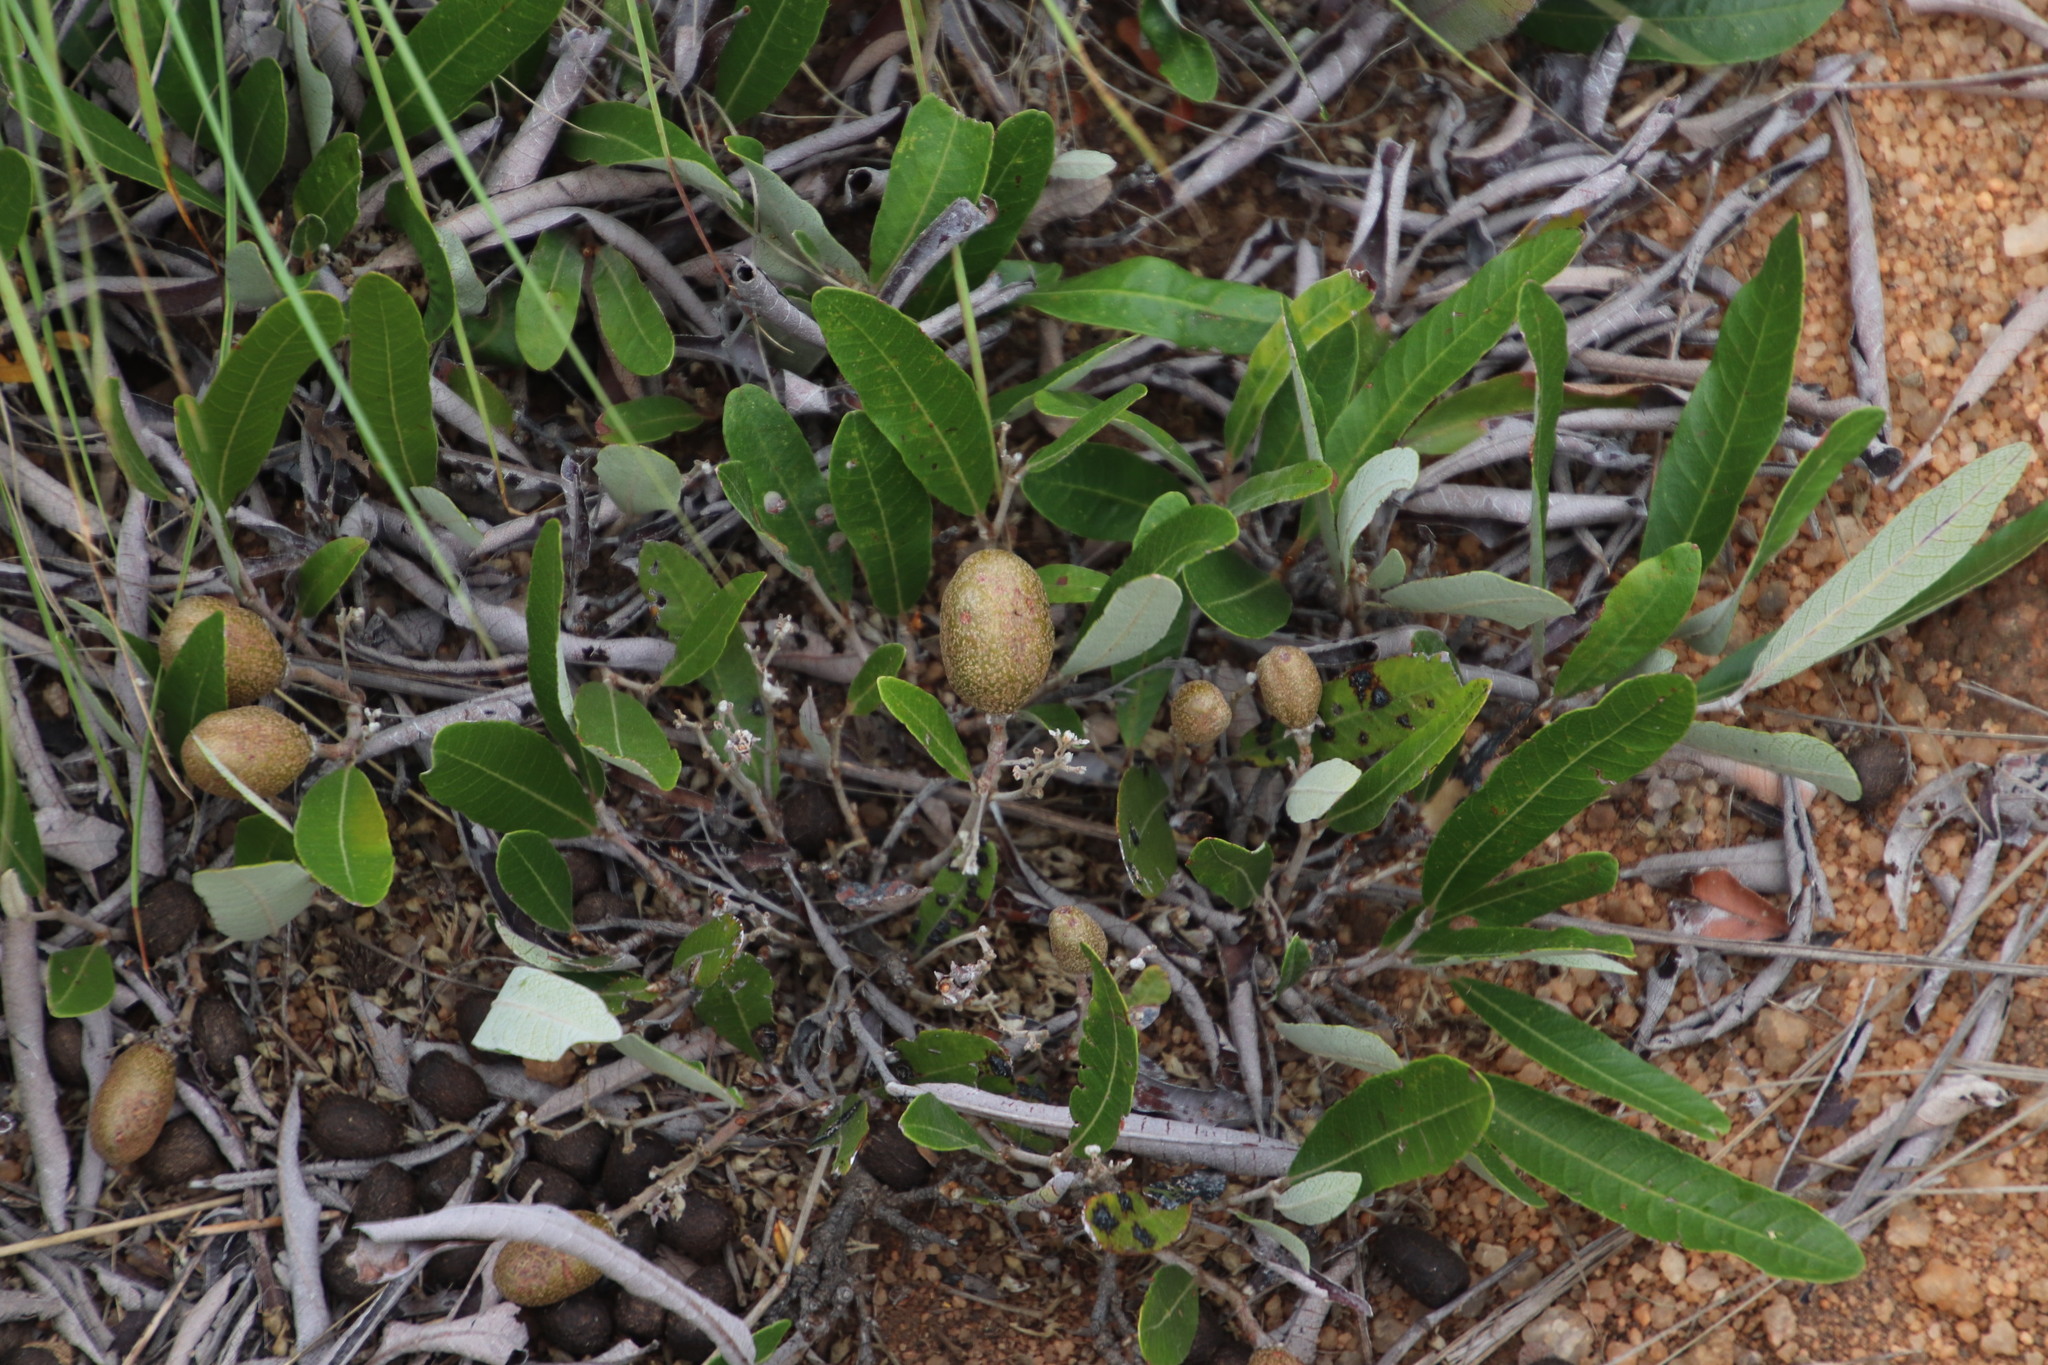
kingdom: Plantae
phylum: Tracheophyta
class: Magnoliopsida
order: Malpighiales
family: Chrysobalanaceae
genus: Parinari
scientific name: Parinari capensis
